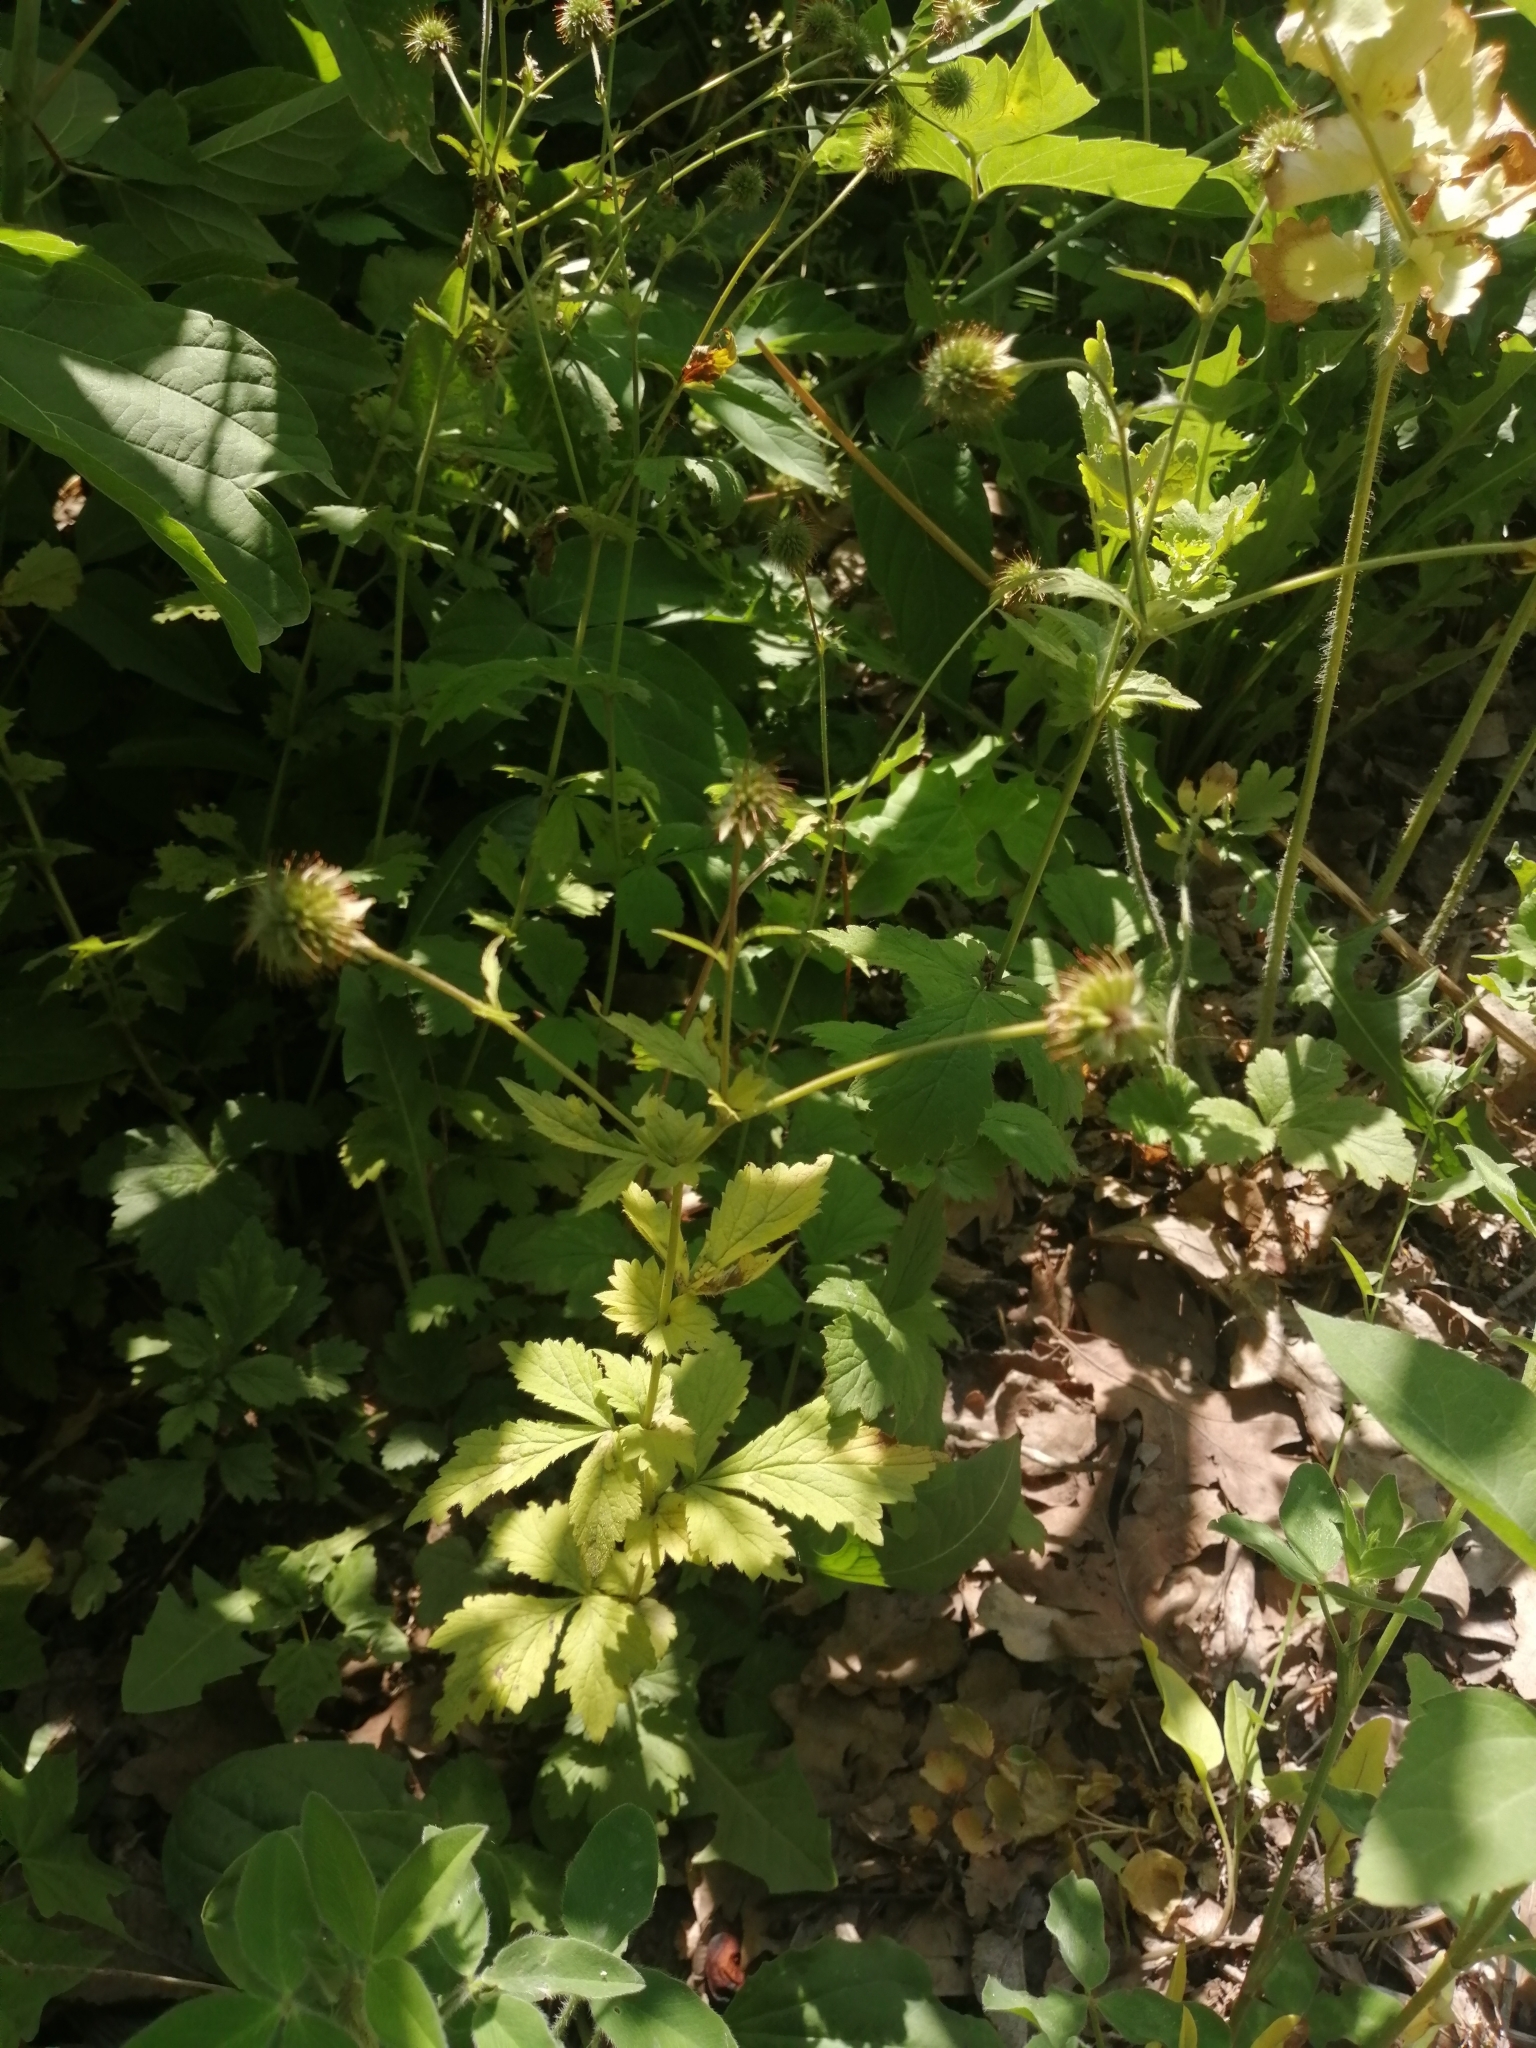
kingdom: Plantae
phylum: Tracheophyta
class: Magnoliopsida
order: Rosales
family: Rosaceae
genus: Geum
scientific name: Geum urbanum
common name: Wood avens
